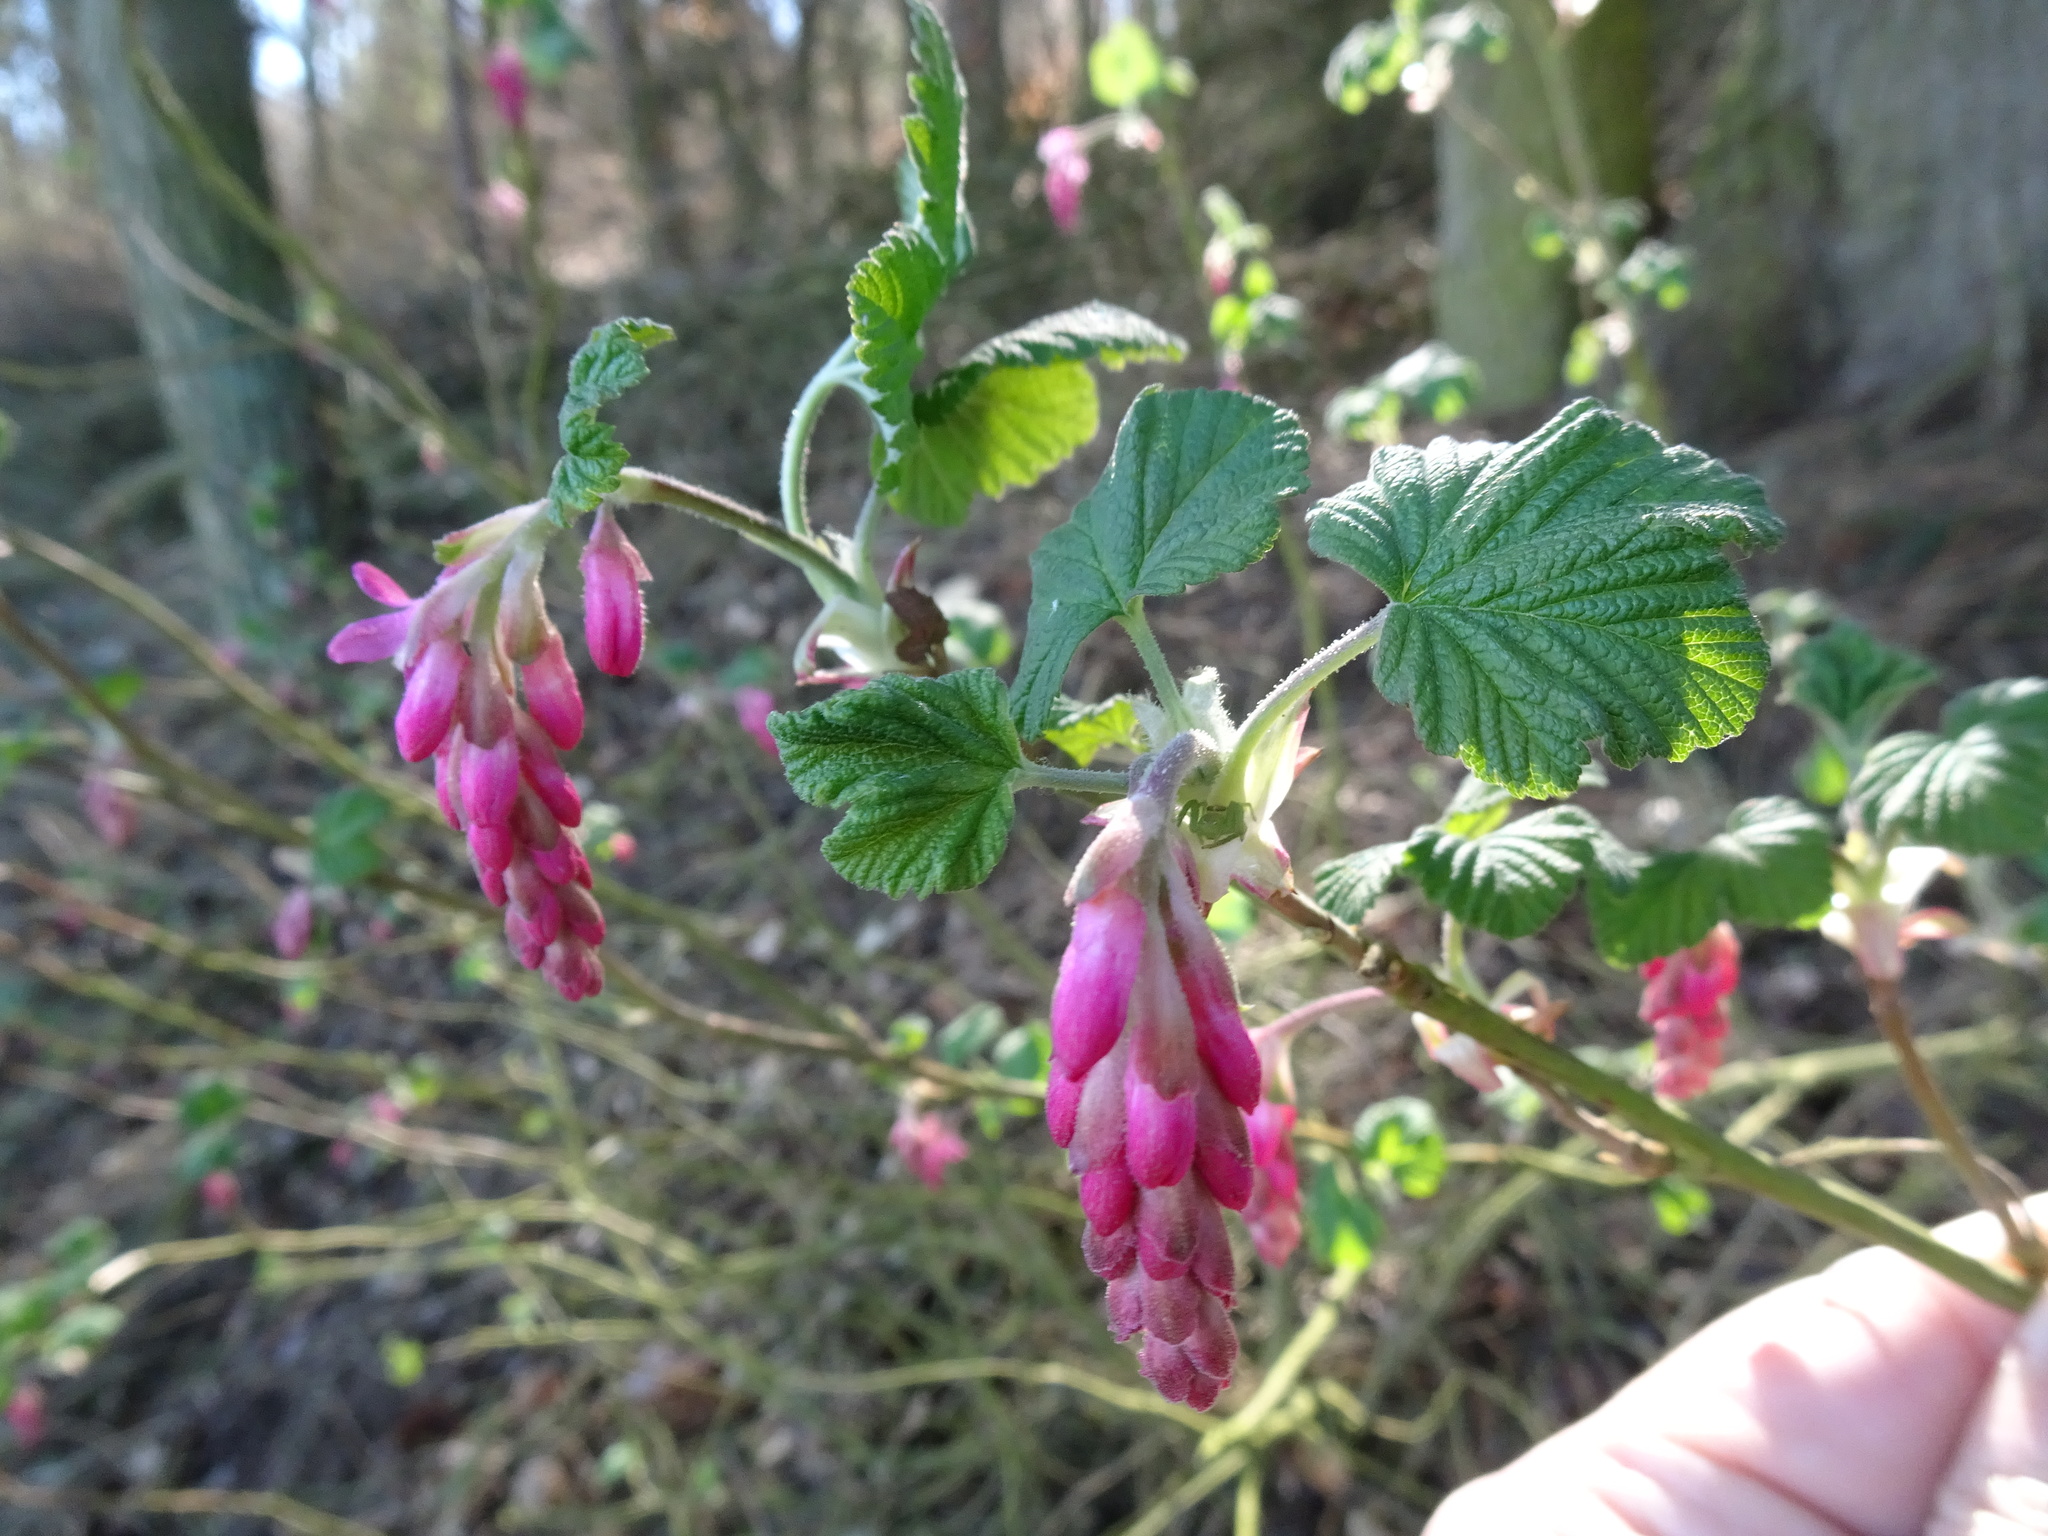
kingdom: Plantae
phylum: Tracheophyta
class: Magnoliopsida
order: Saxifragales
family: Grossulariaceae
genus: Ribes
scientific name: Ribes sanguineum
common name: Flowering currant
